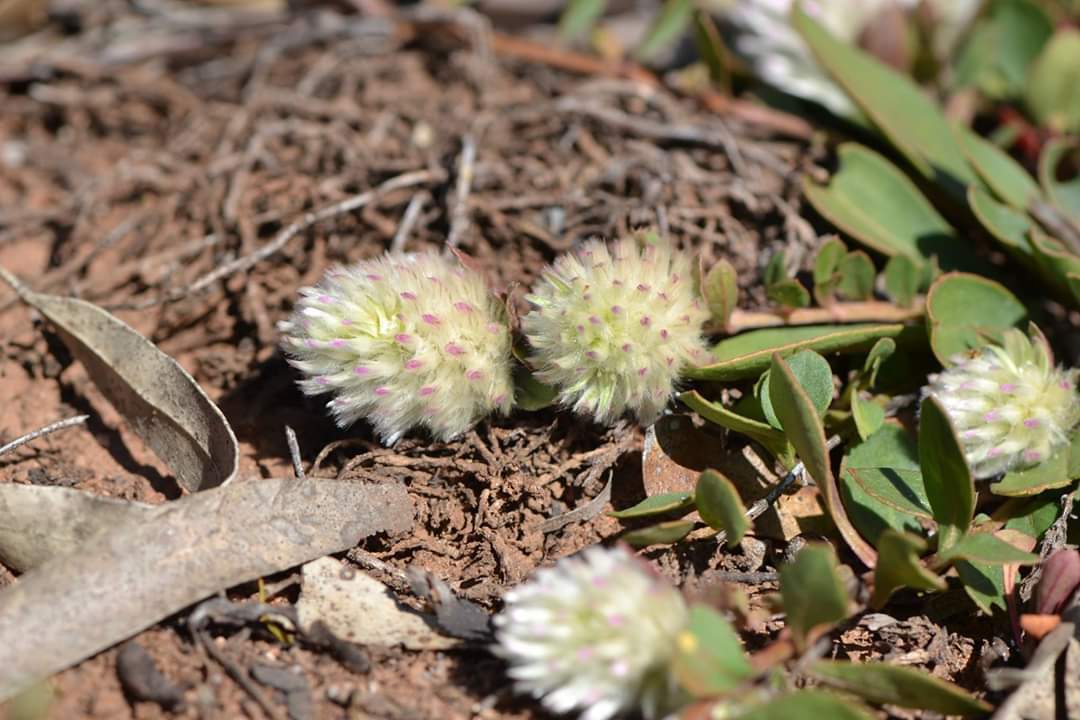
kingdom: Plantae
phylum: Tracheophyta
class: Magnoliopsida
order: Caryophyllales
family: Amaranthaceae
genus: Ptilotus
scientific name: Ptilotus holosericeus
